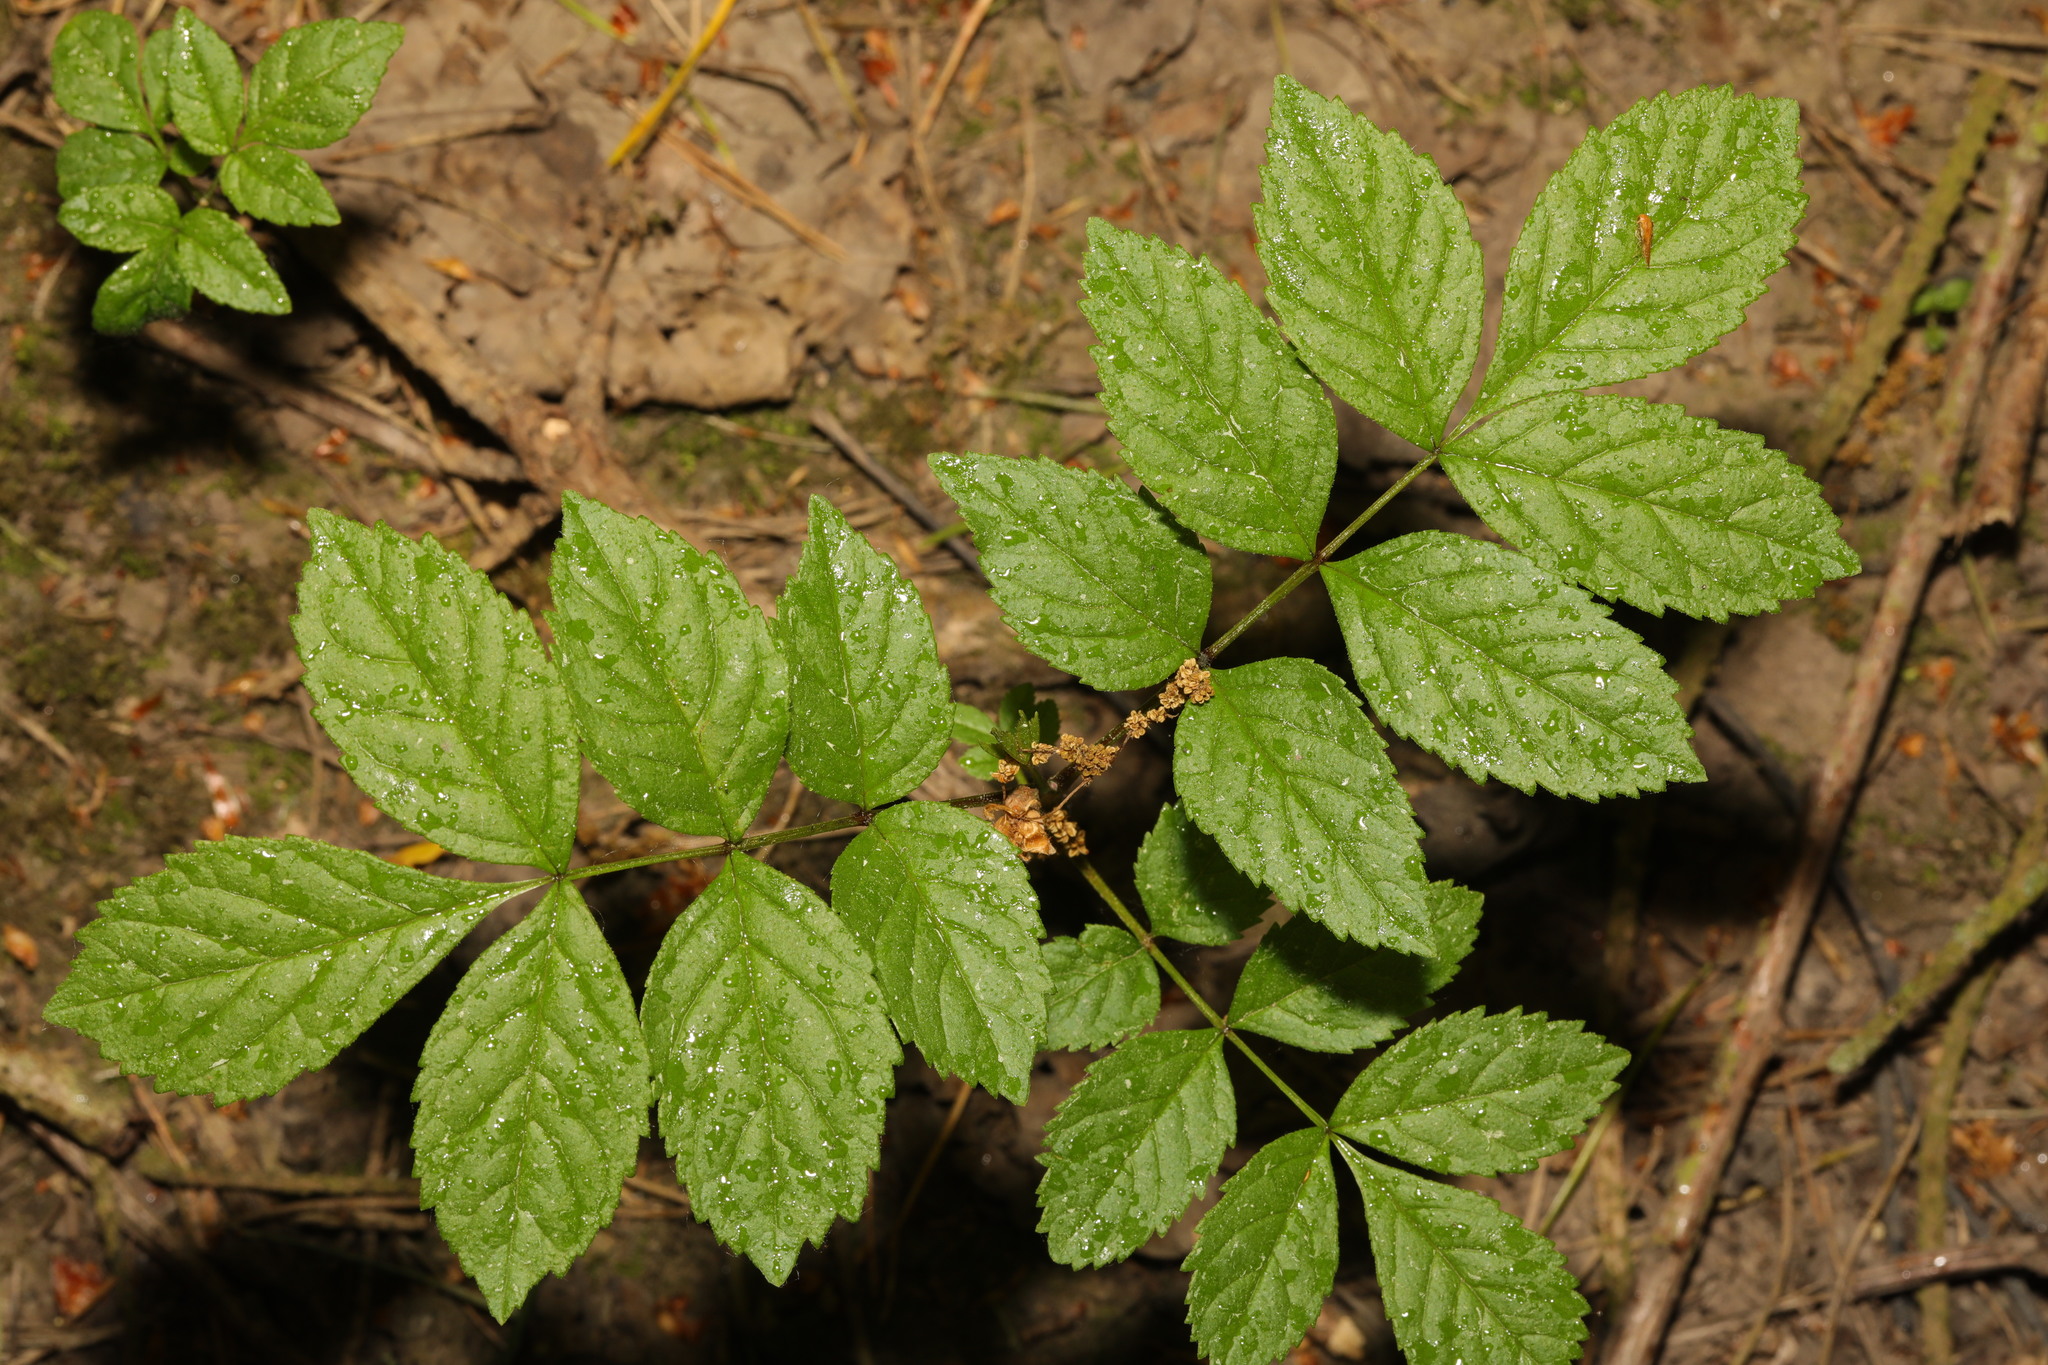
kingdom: Plantae
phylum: Tracheophyta
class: Magnoliopsida
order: Lamiales
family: Oleaceae
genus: Fraxinus
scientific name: Fraxinus excelsior
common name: European ash
